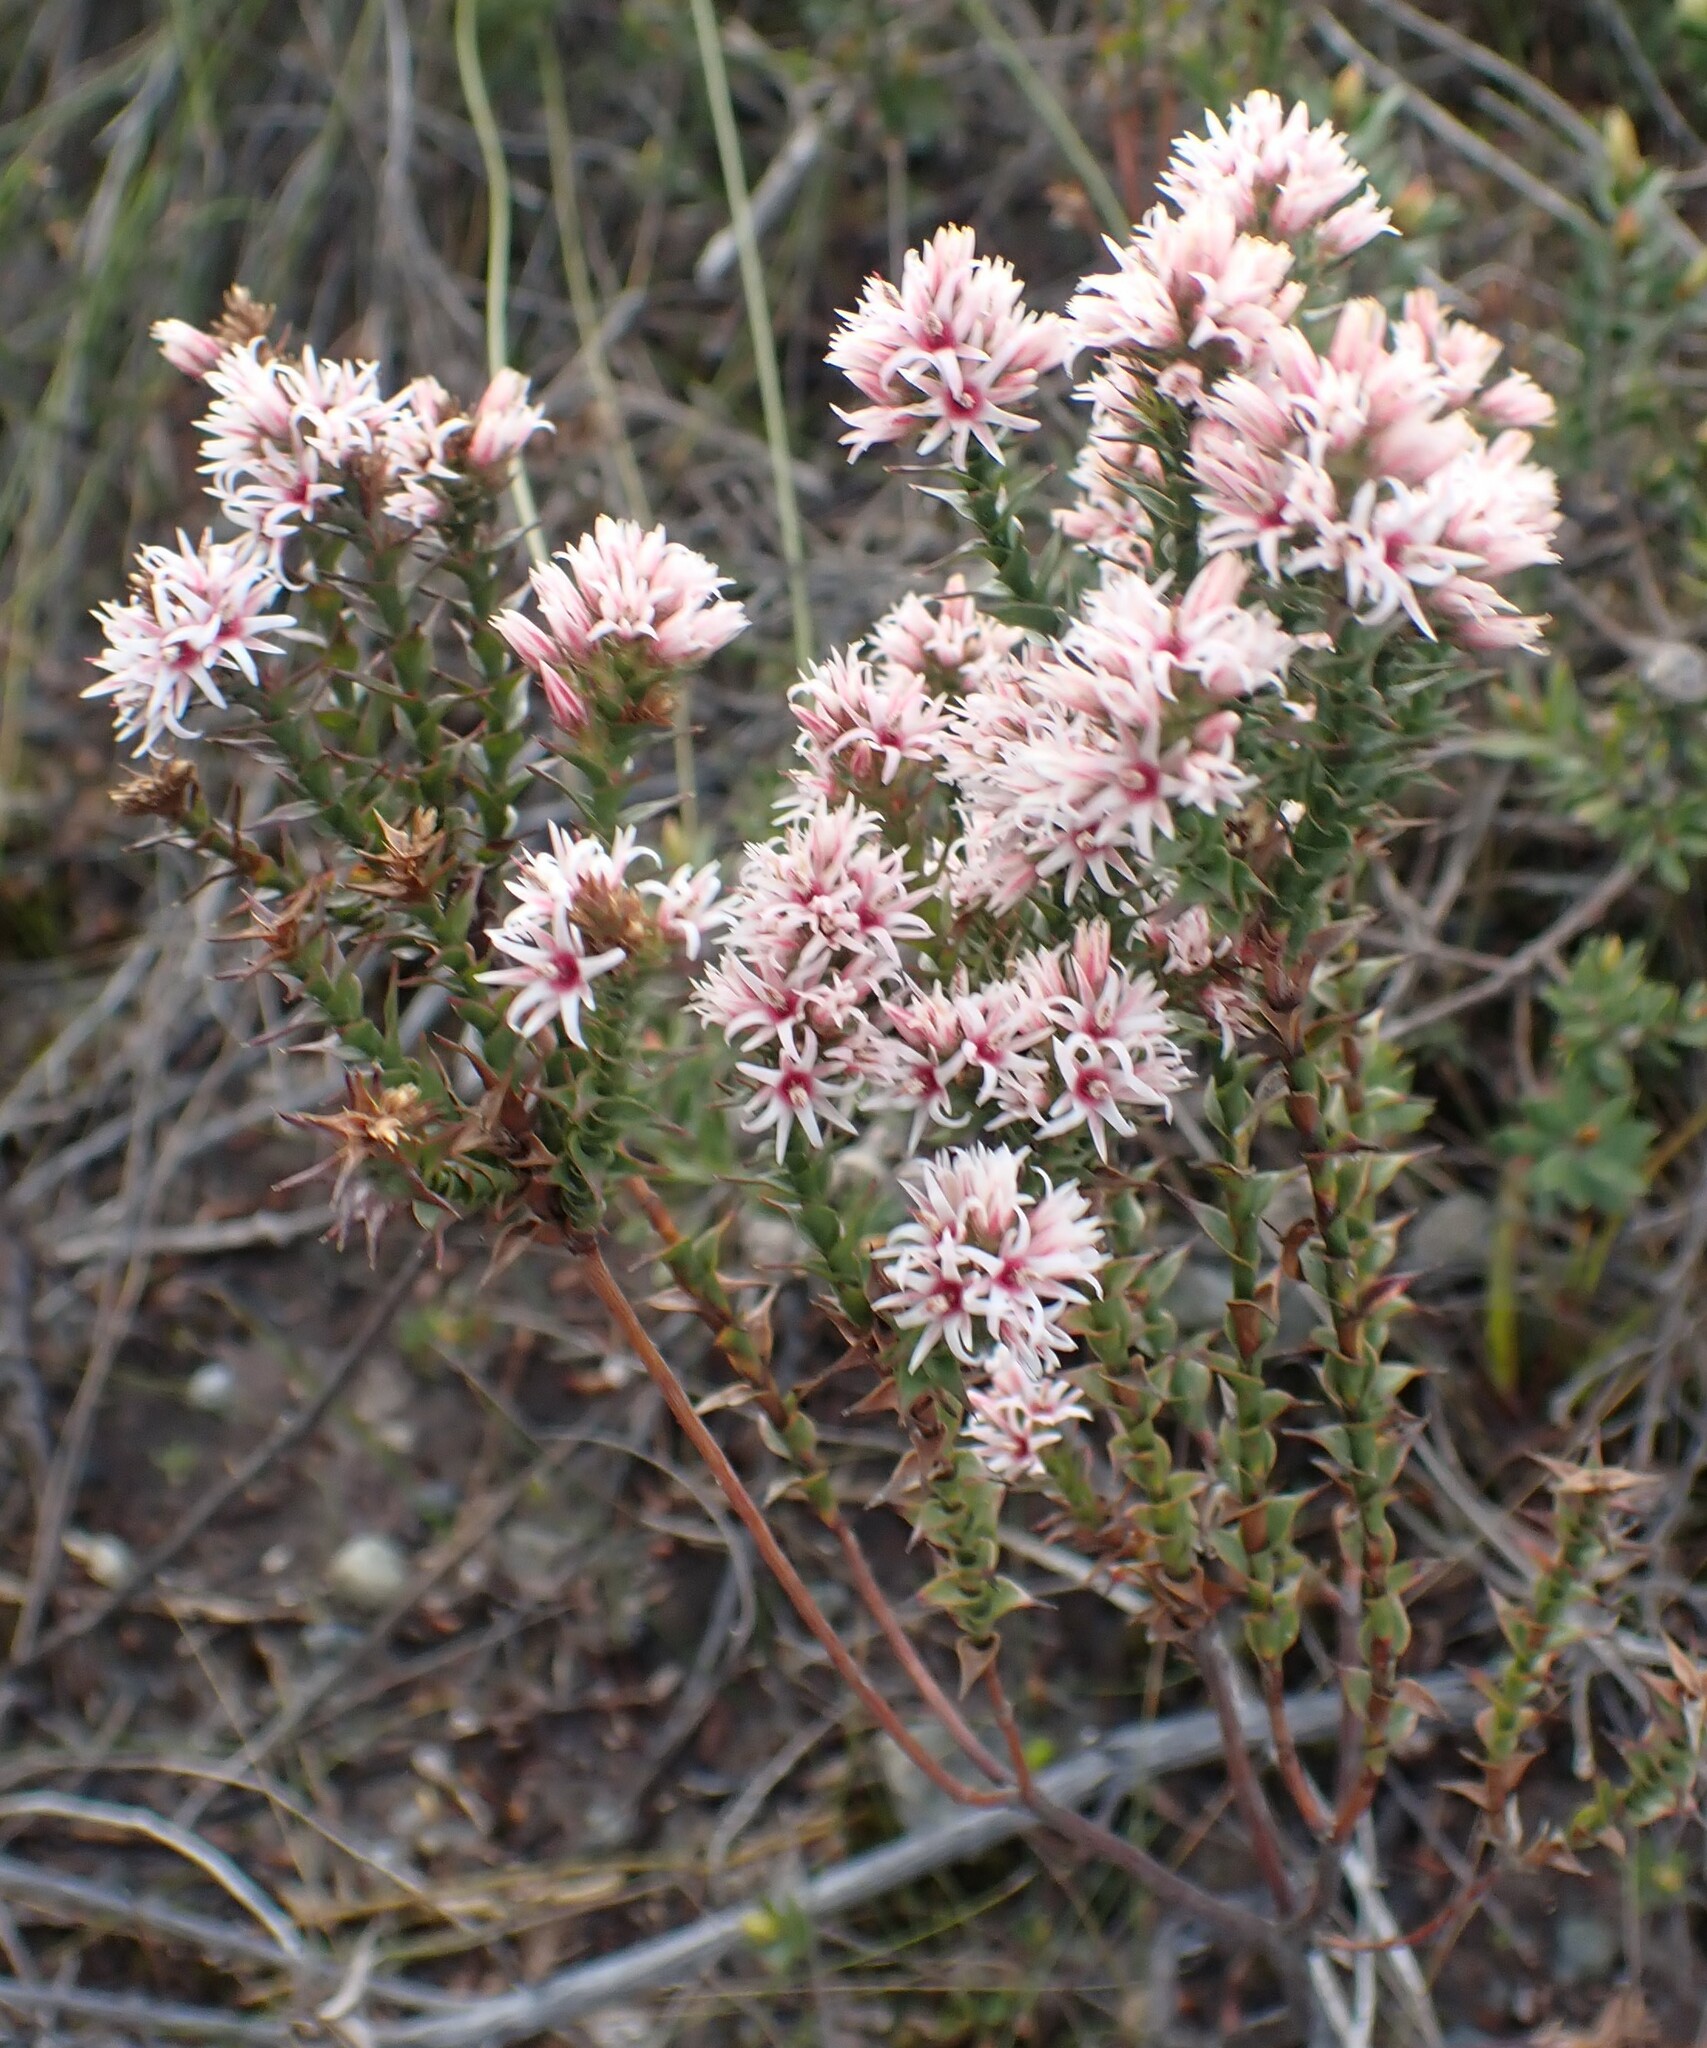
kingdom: Plantae
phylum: Tracheophyta
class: Magnoliopsida
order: Ericales
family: Ericaceae
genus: Sprengelia
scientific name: Sprengelia incarnata
